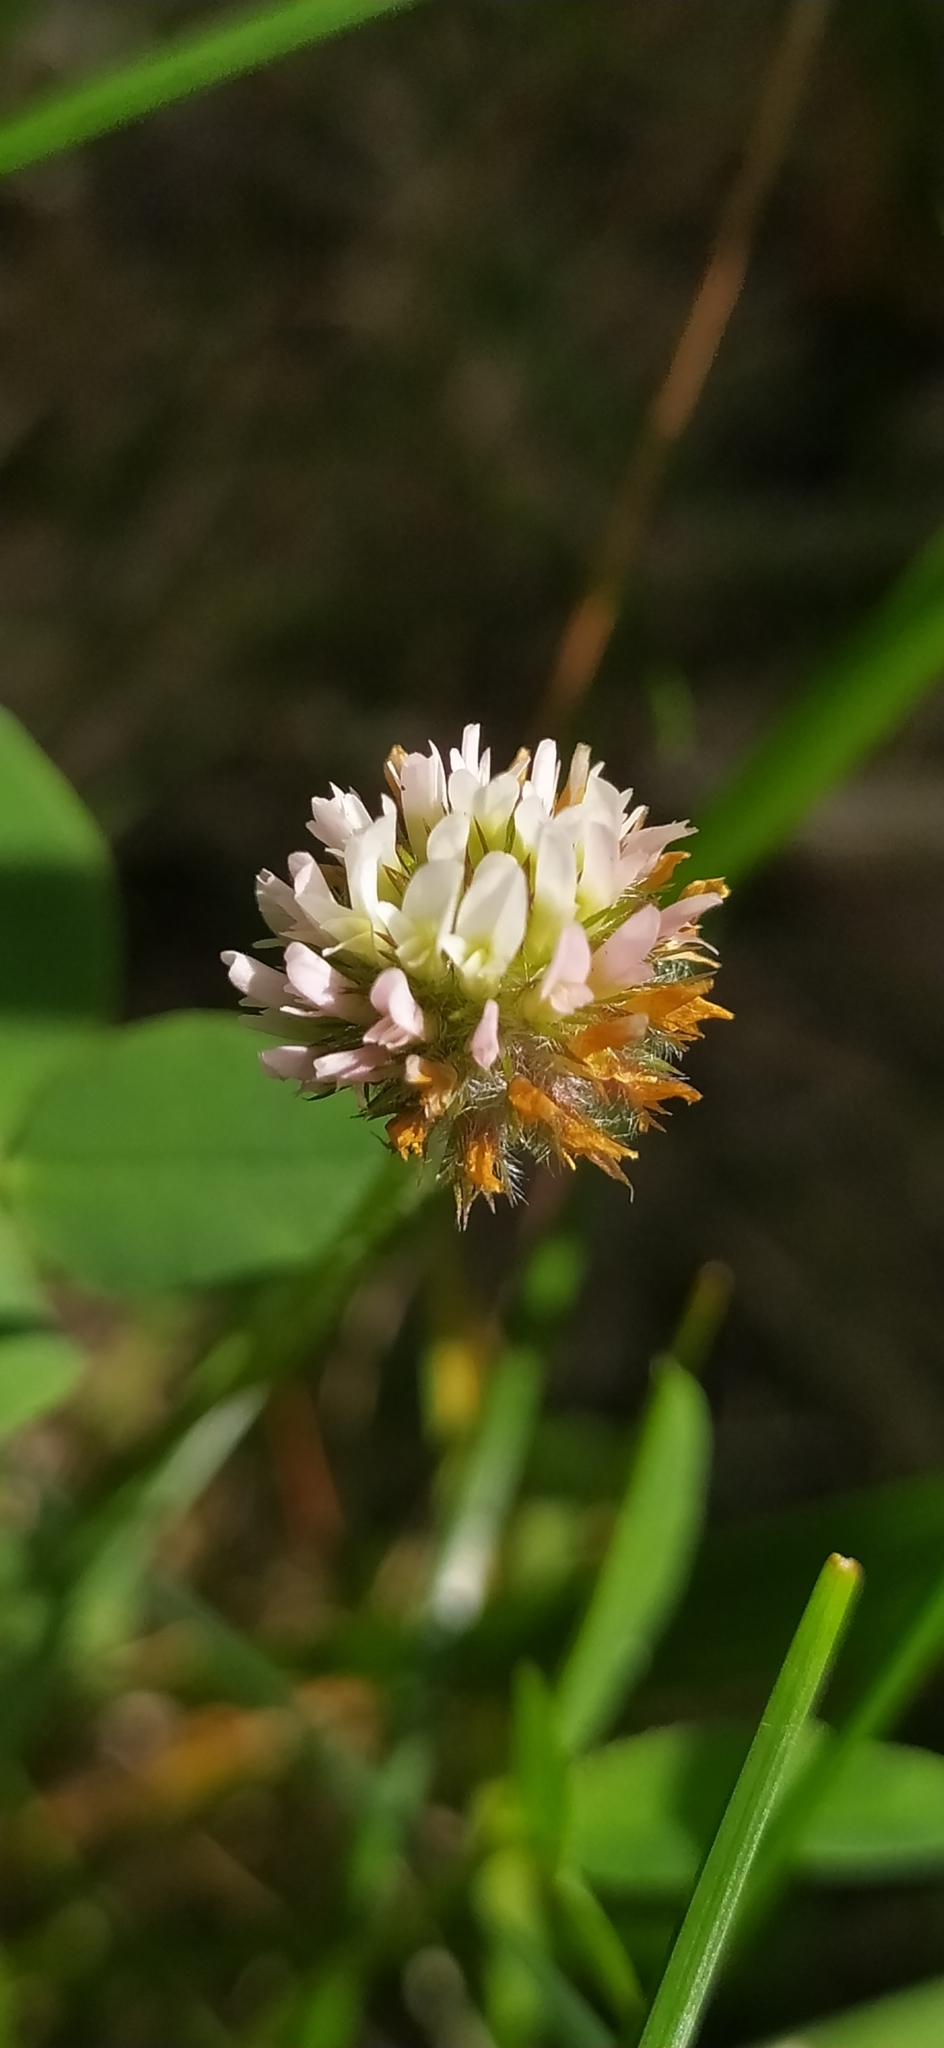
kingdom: Plantae
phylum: Tracheophyta
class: Magnoliopsida
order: Fabales
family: Fabaceae
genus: Trifolium
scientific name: Trifolium fragiferum
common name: Strawberry clover
